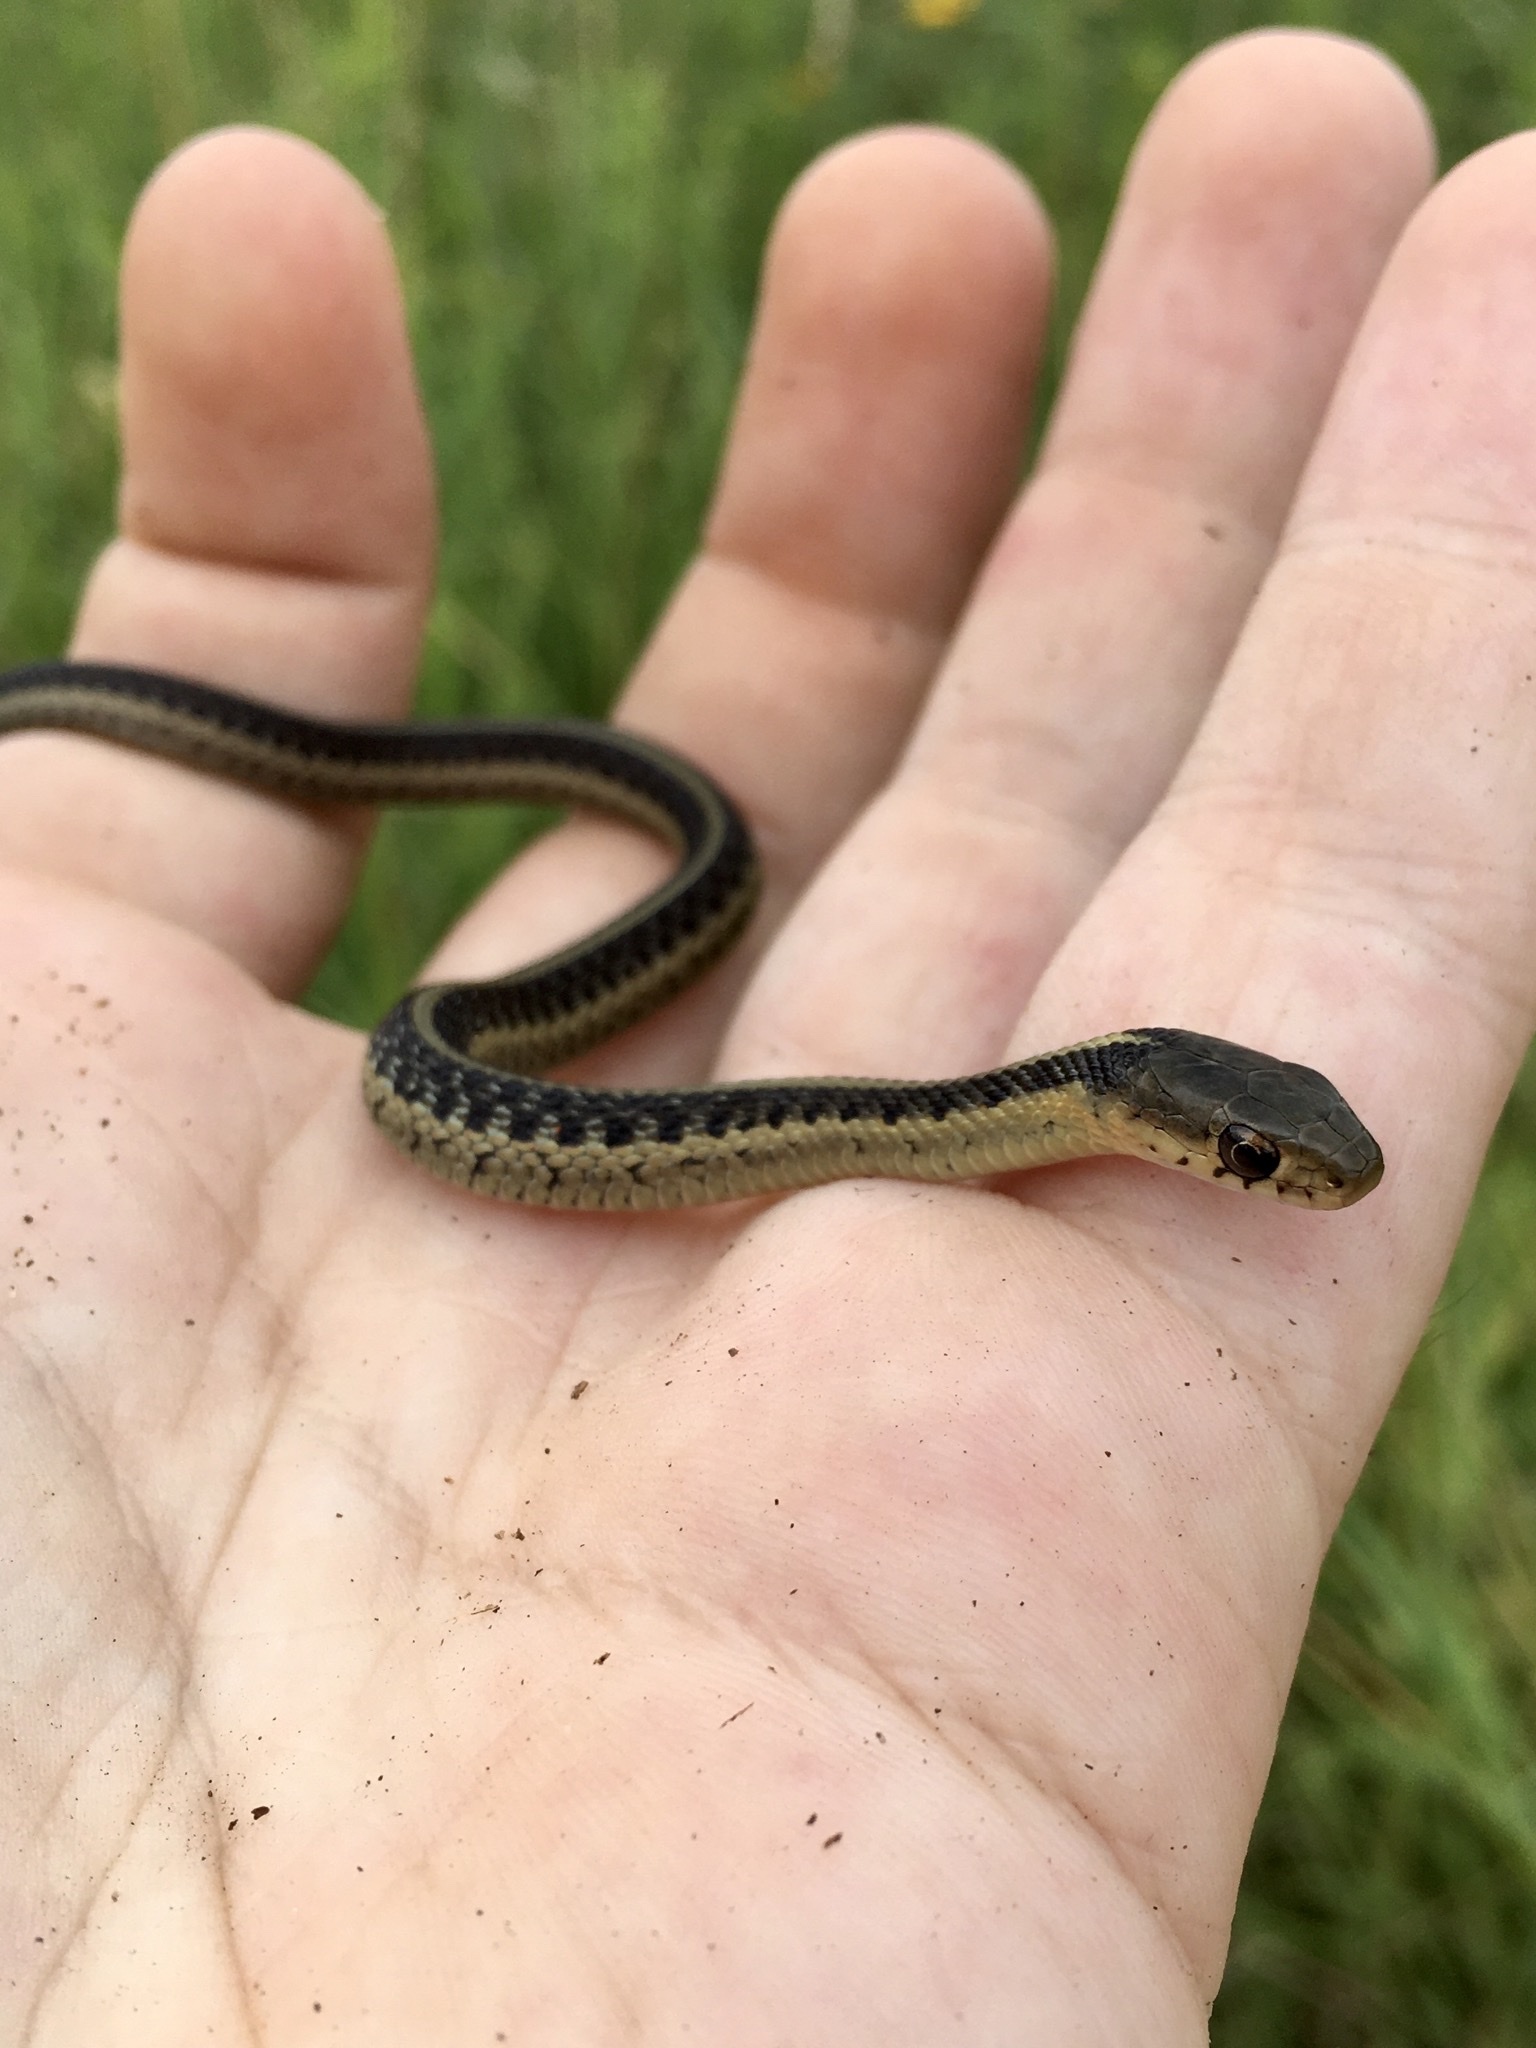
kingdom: Animalia
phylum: Chordata
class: Squamata
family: Colubridae
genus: Thamnophis
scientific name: Thamnophis sirtalis
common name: Common garter snake
